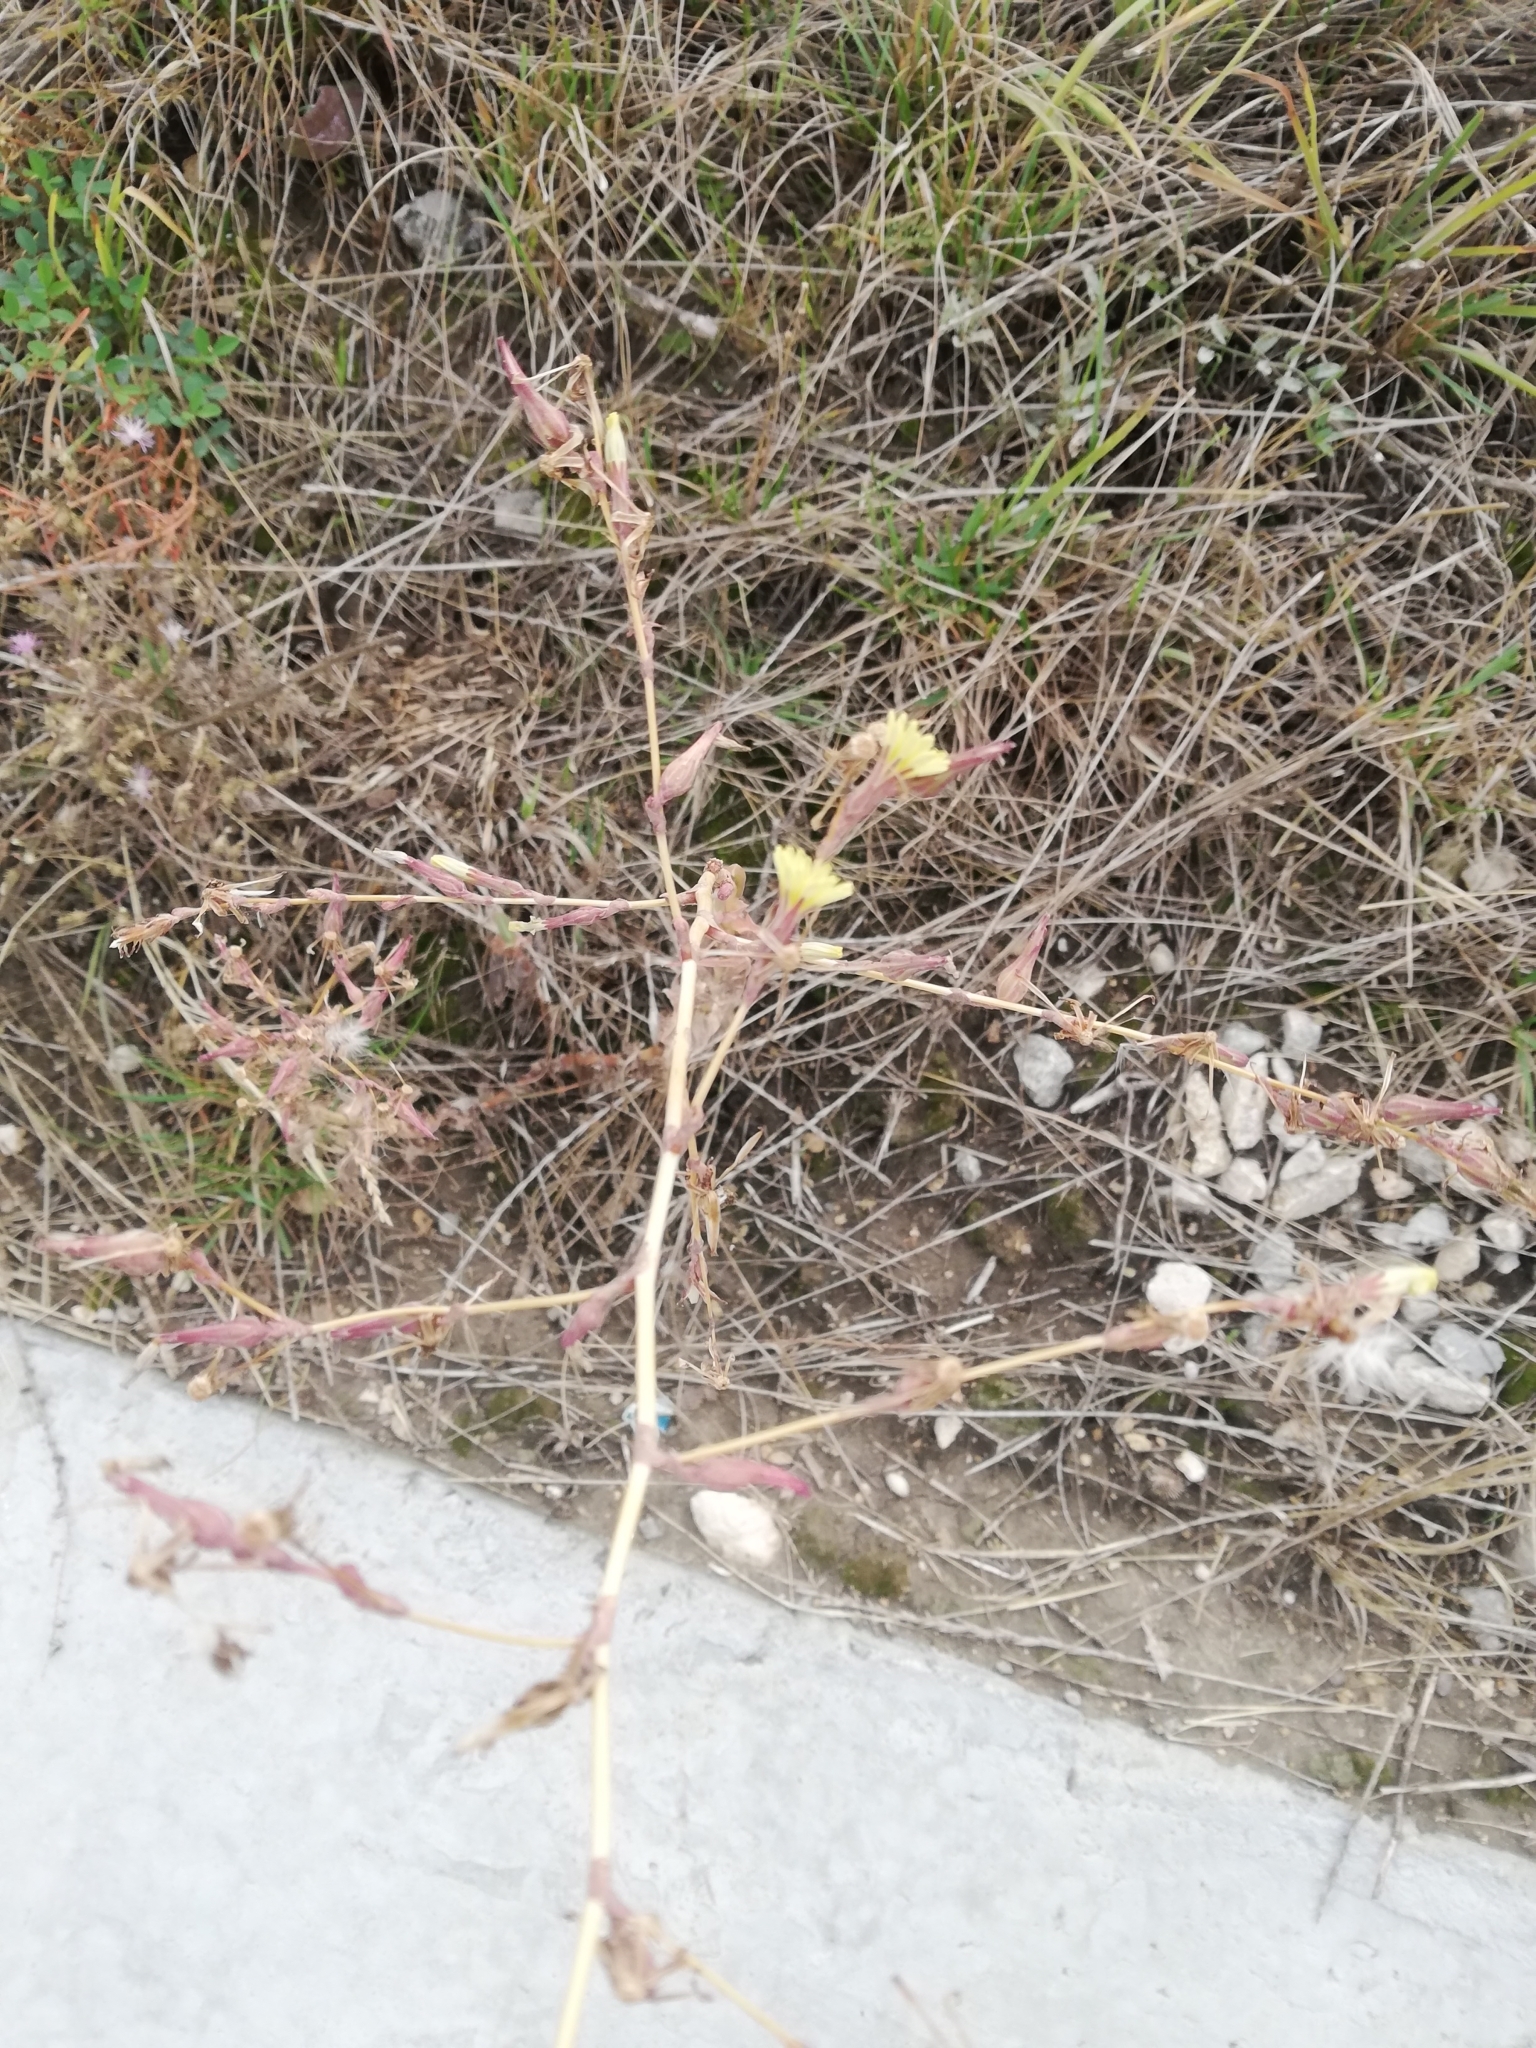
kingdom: Plantae
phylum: Tracheophyta
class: Magnoliopsida
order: Asterales
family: Asteraceae
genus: Lactuca
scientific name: Lactuca serriola
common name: Prickly lettuce
